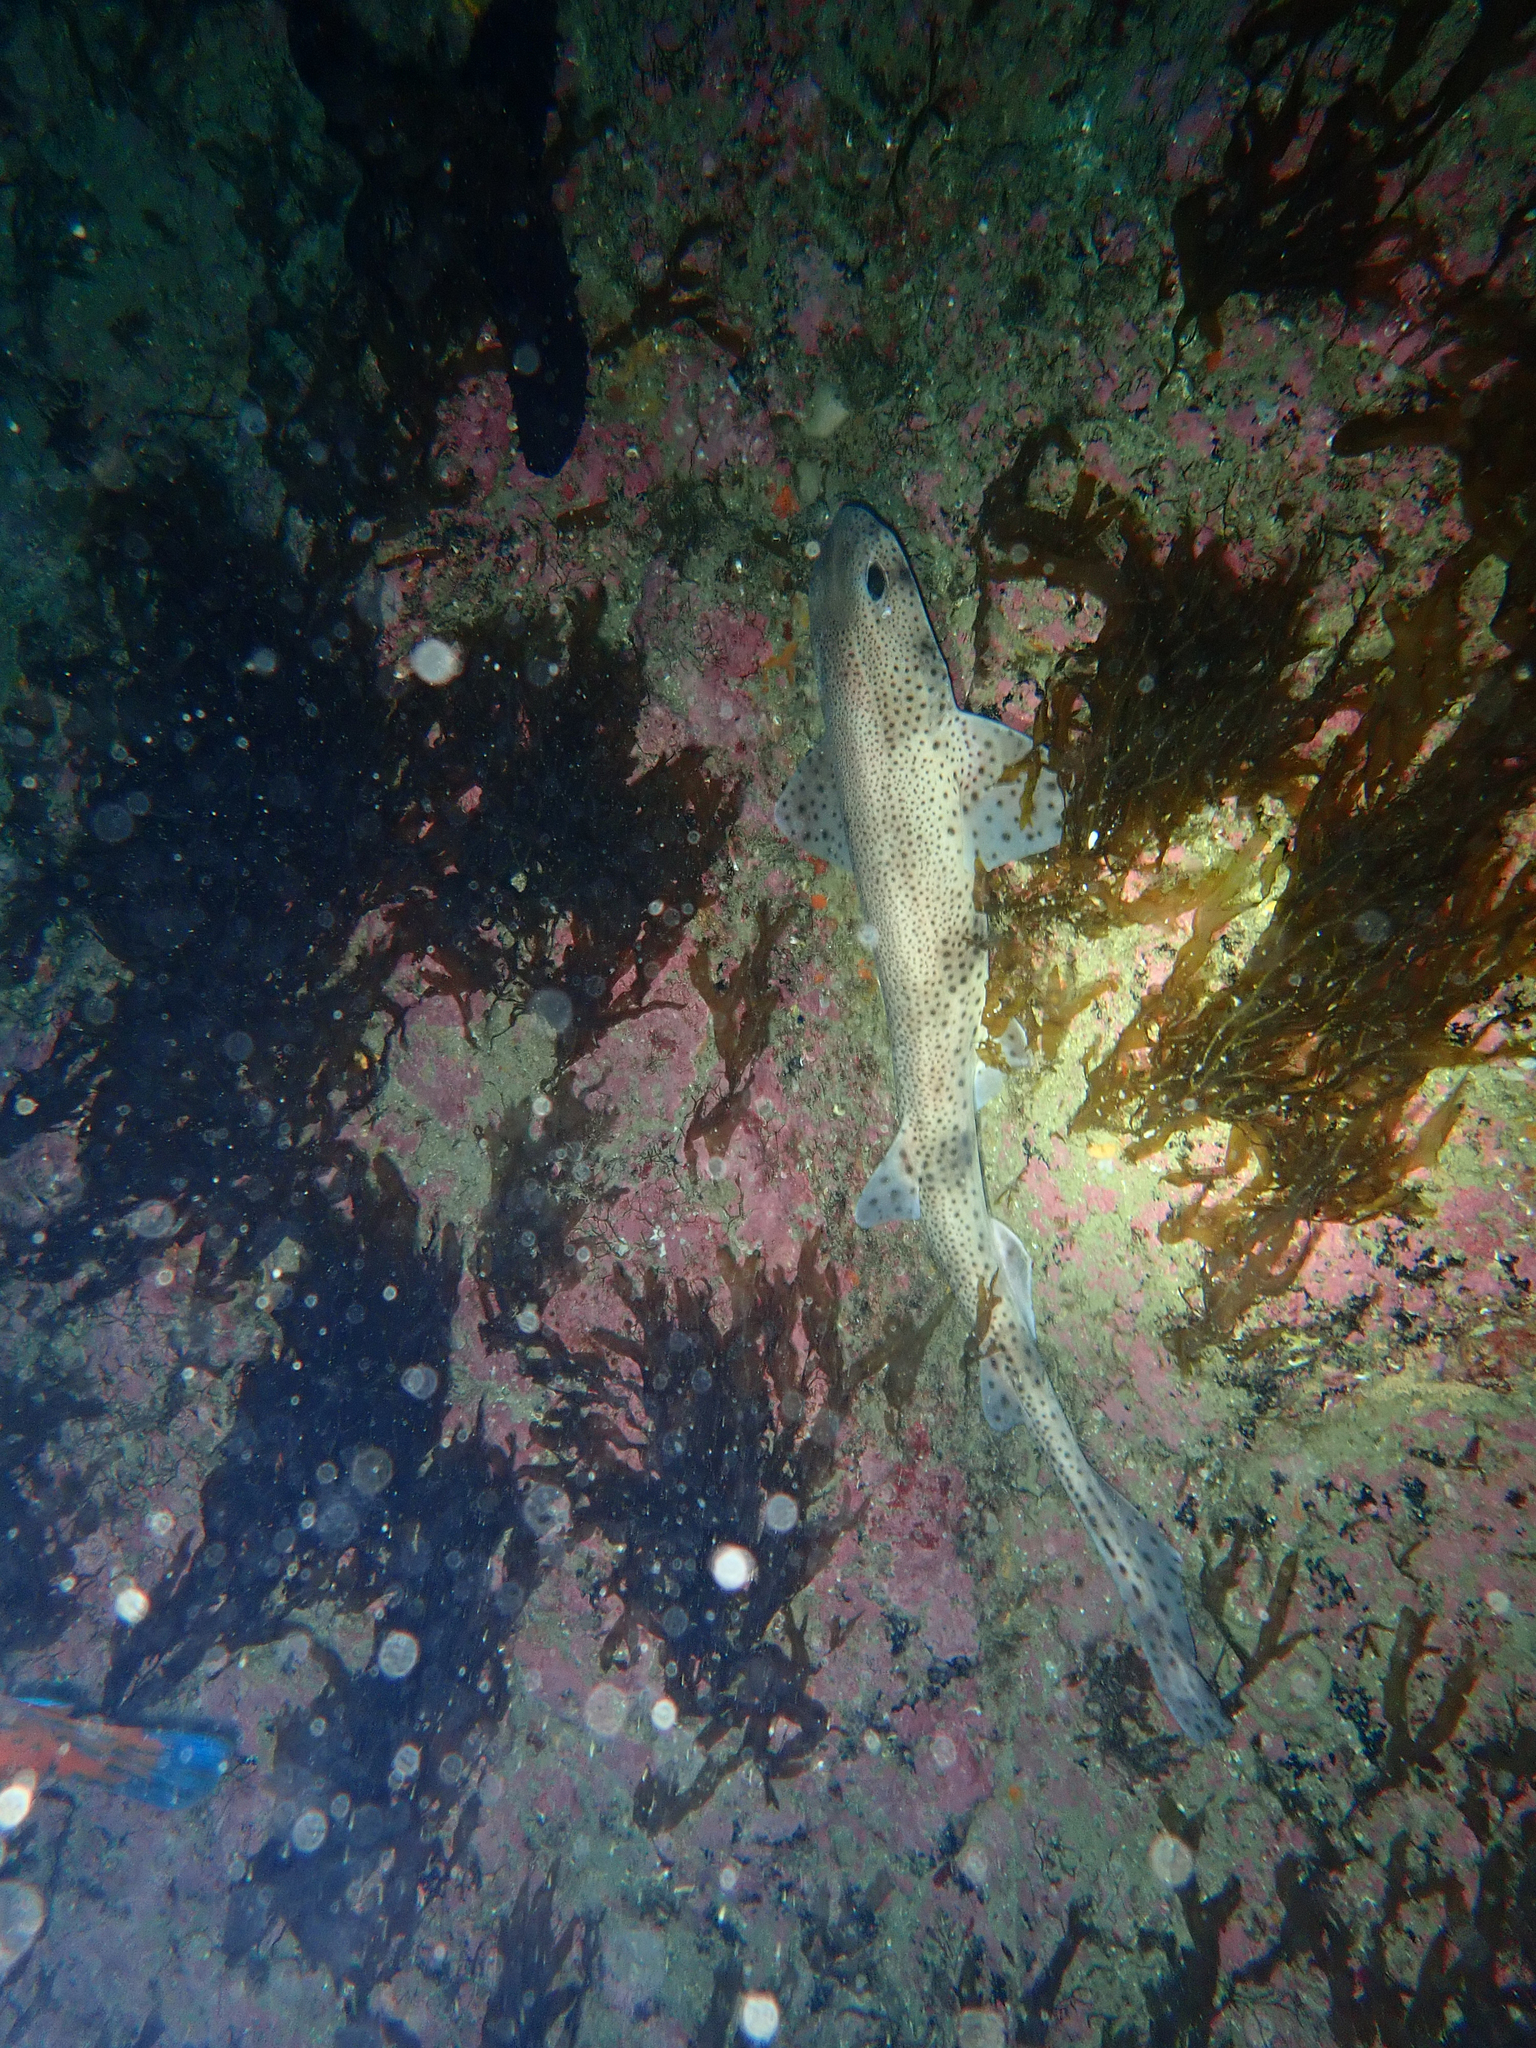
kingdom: Animalia
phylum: Chordata
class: Elasmobranchii
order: Carcharhiniformes
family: Scyliorhinidae
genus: Scyliorhinus
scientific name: Scyliorhinus canicula
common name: Lesser spotted dogfish
